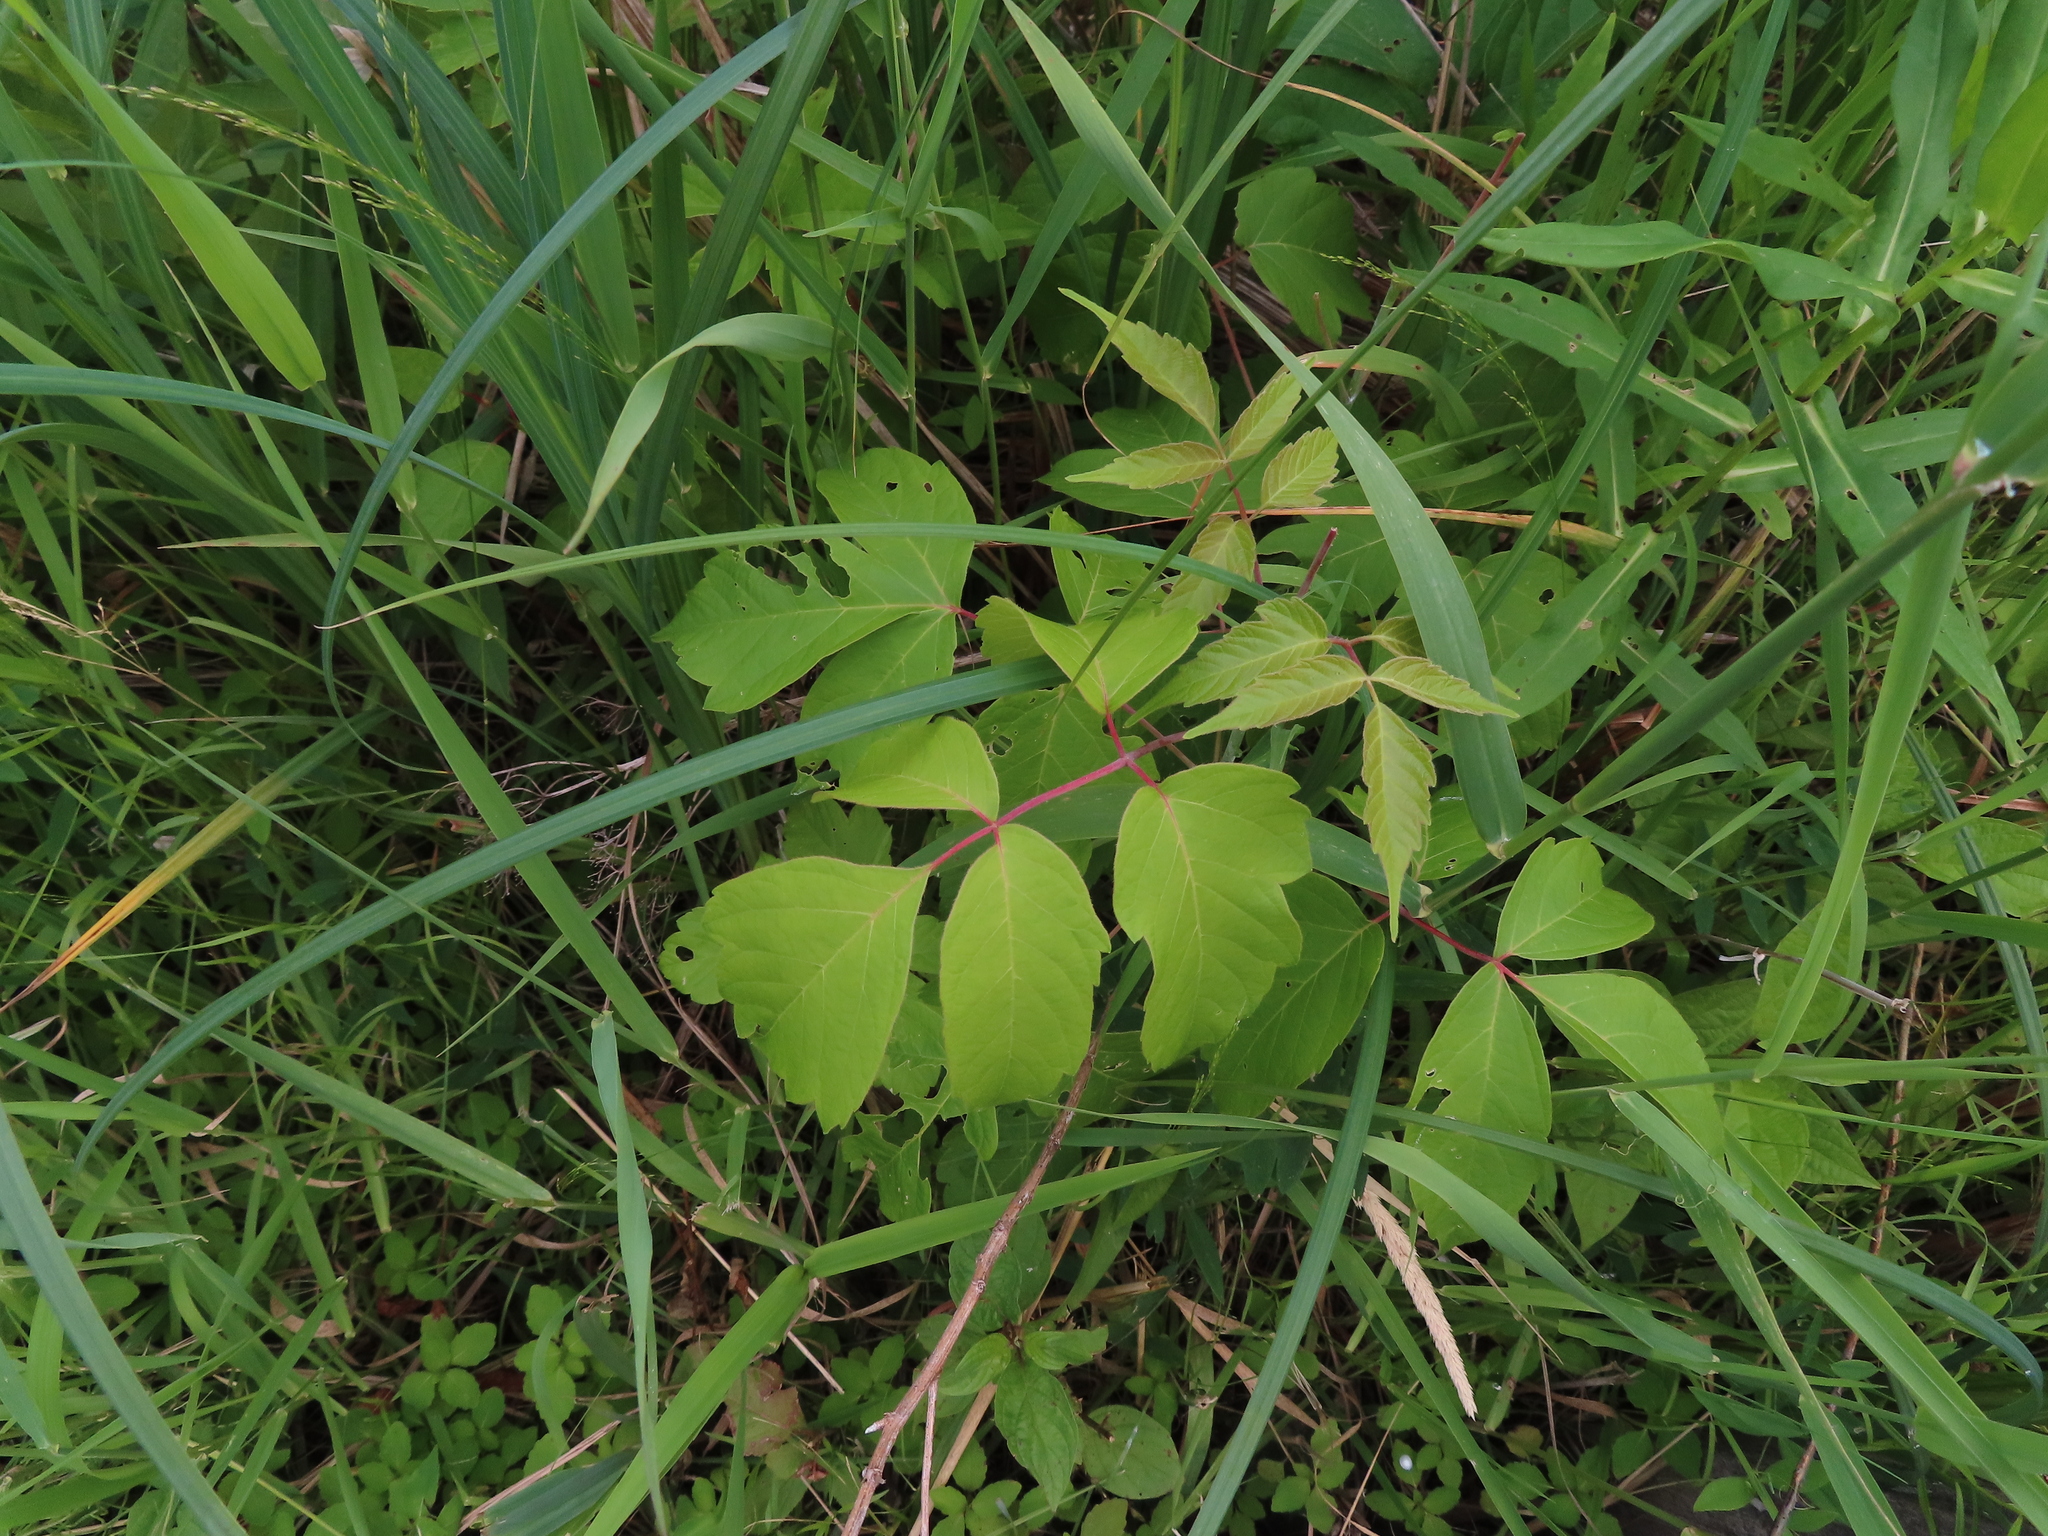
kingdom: Plantae
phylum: Tracheophyta
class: Magnoliopsida
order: Sapindales
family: Sapindaceae
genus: Acer
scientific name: Acer negundo
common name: Ashleaf maple
